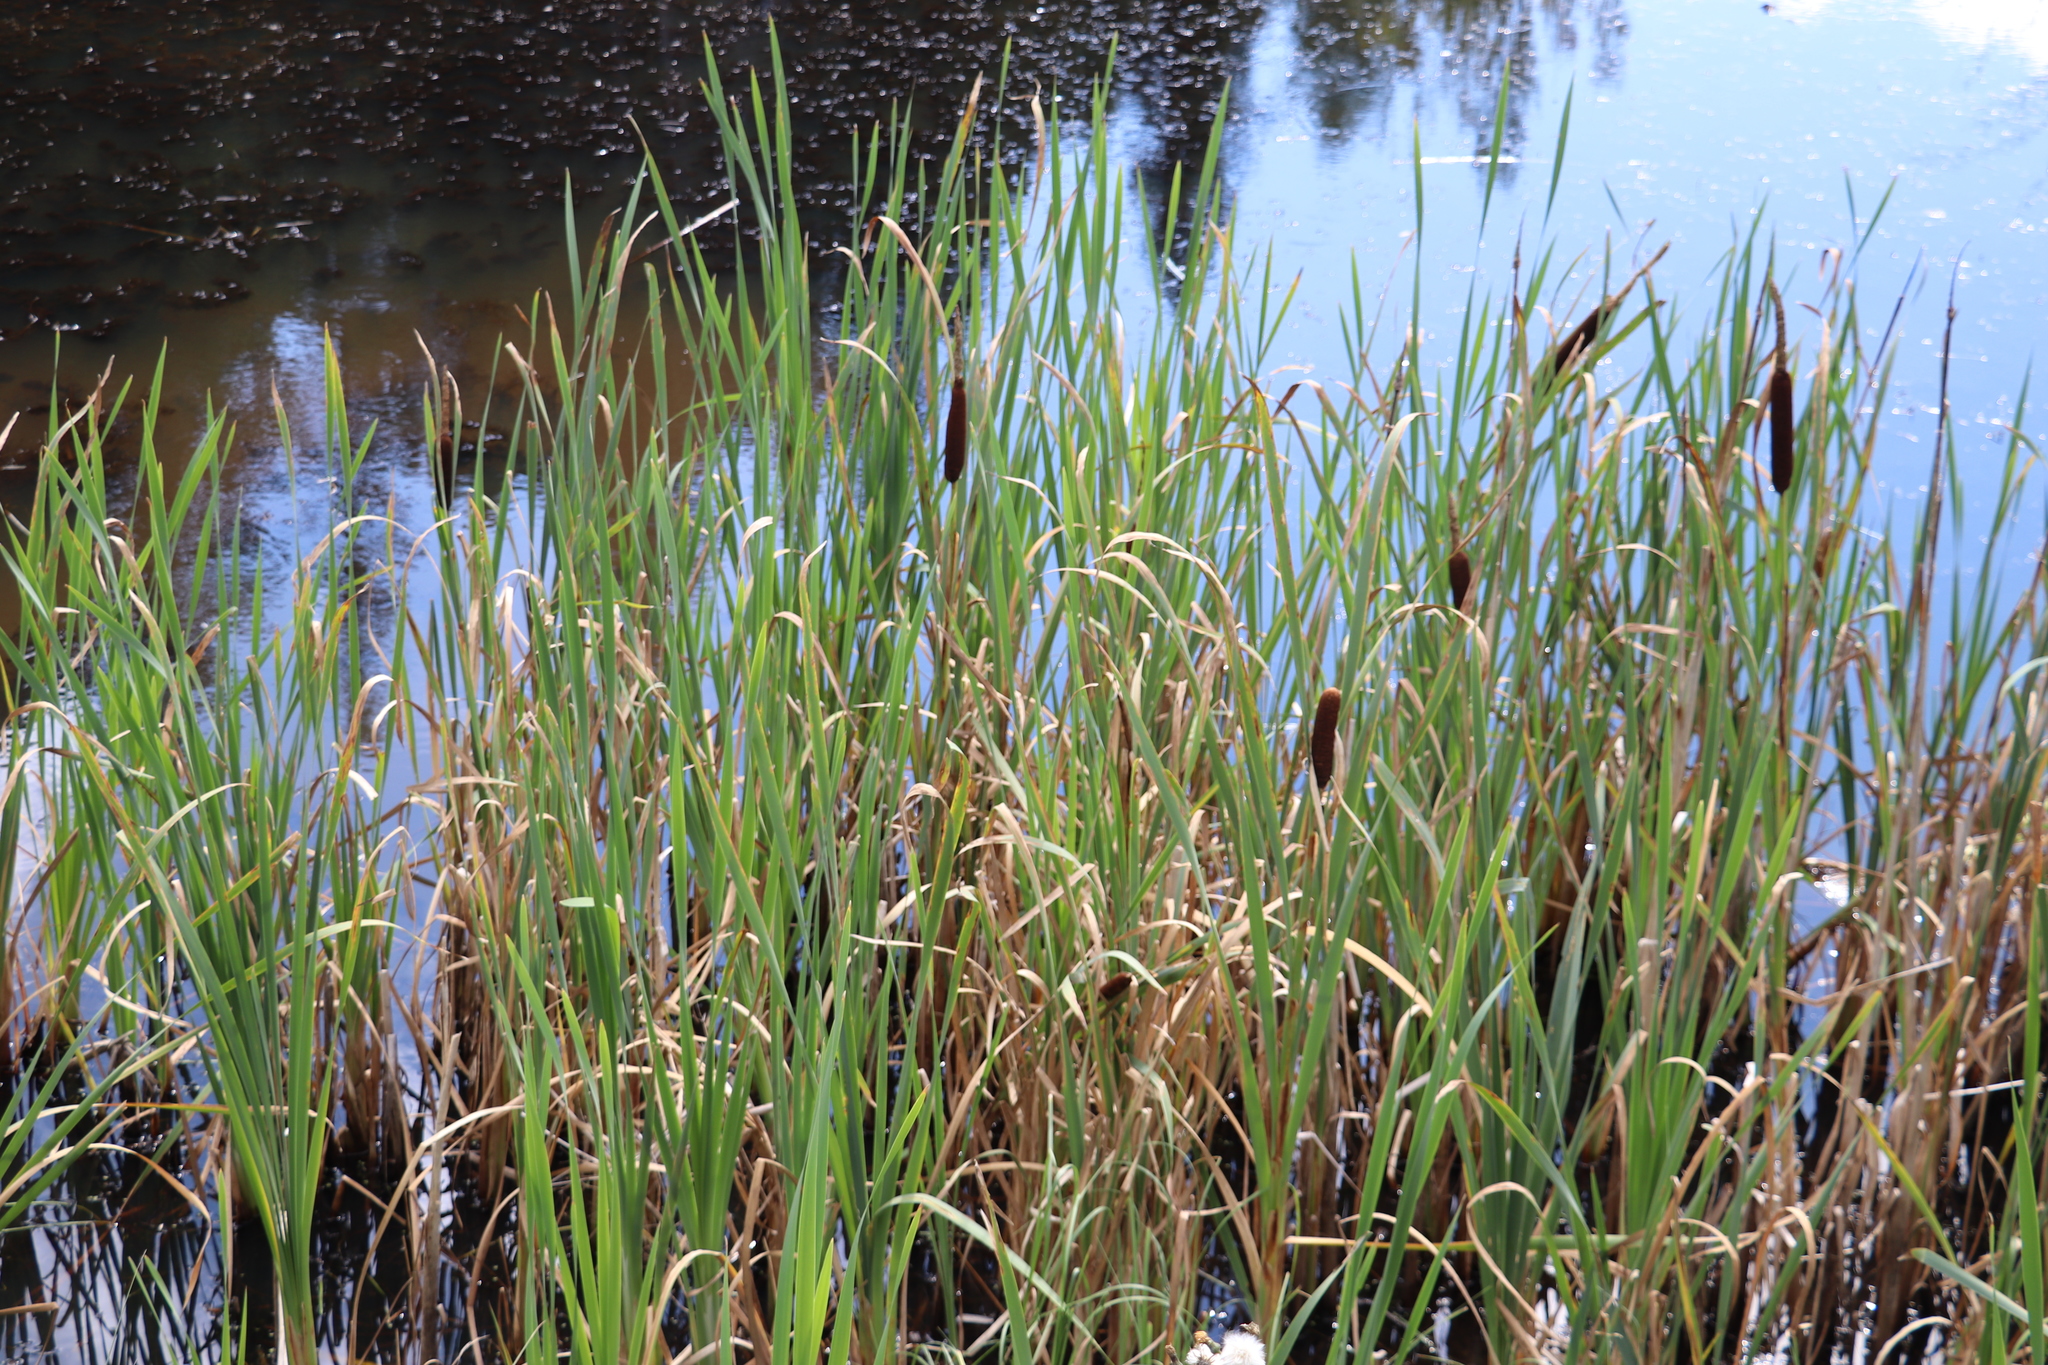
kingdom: Plantae
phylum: Tracheophyta
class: Liliopsida
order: Poales
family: Typhaceae
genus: Typha
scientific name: Typha latifolia
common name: Broadleaf cattail
